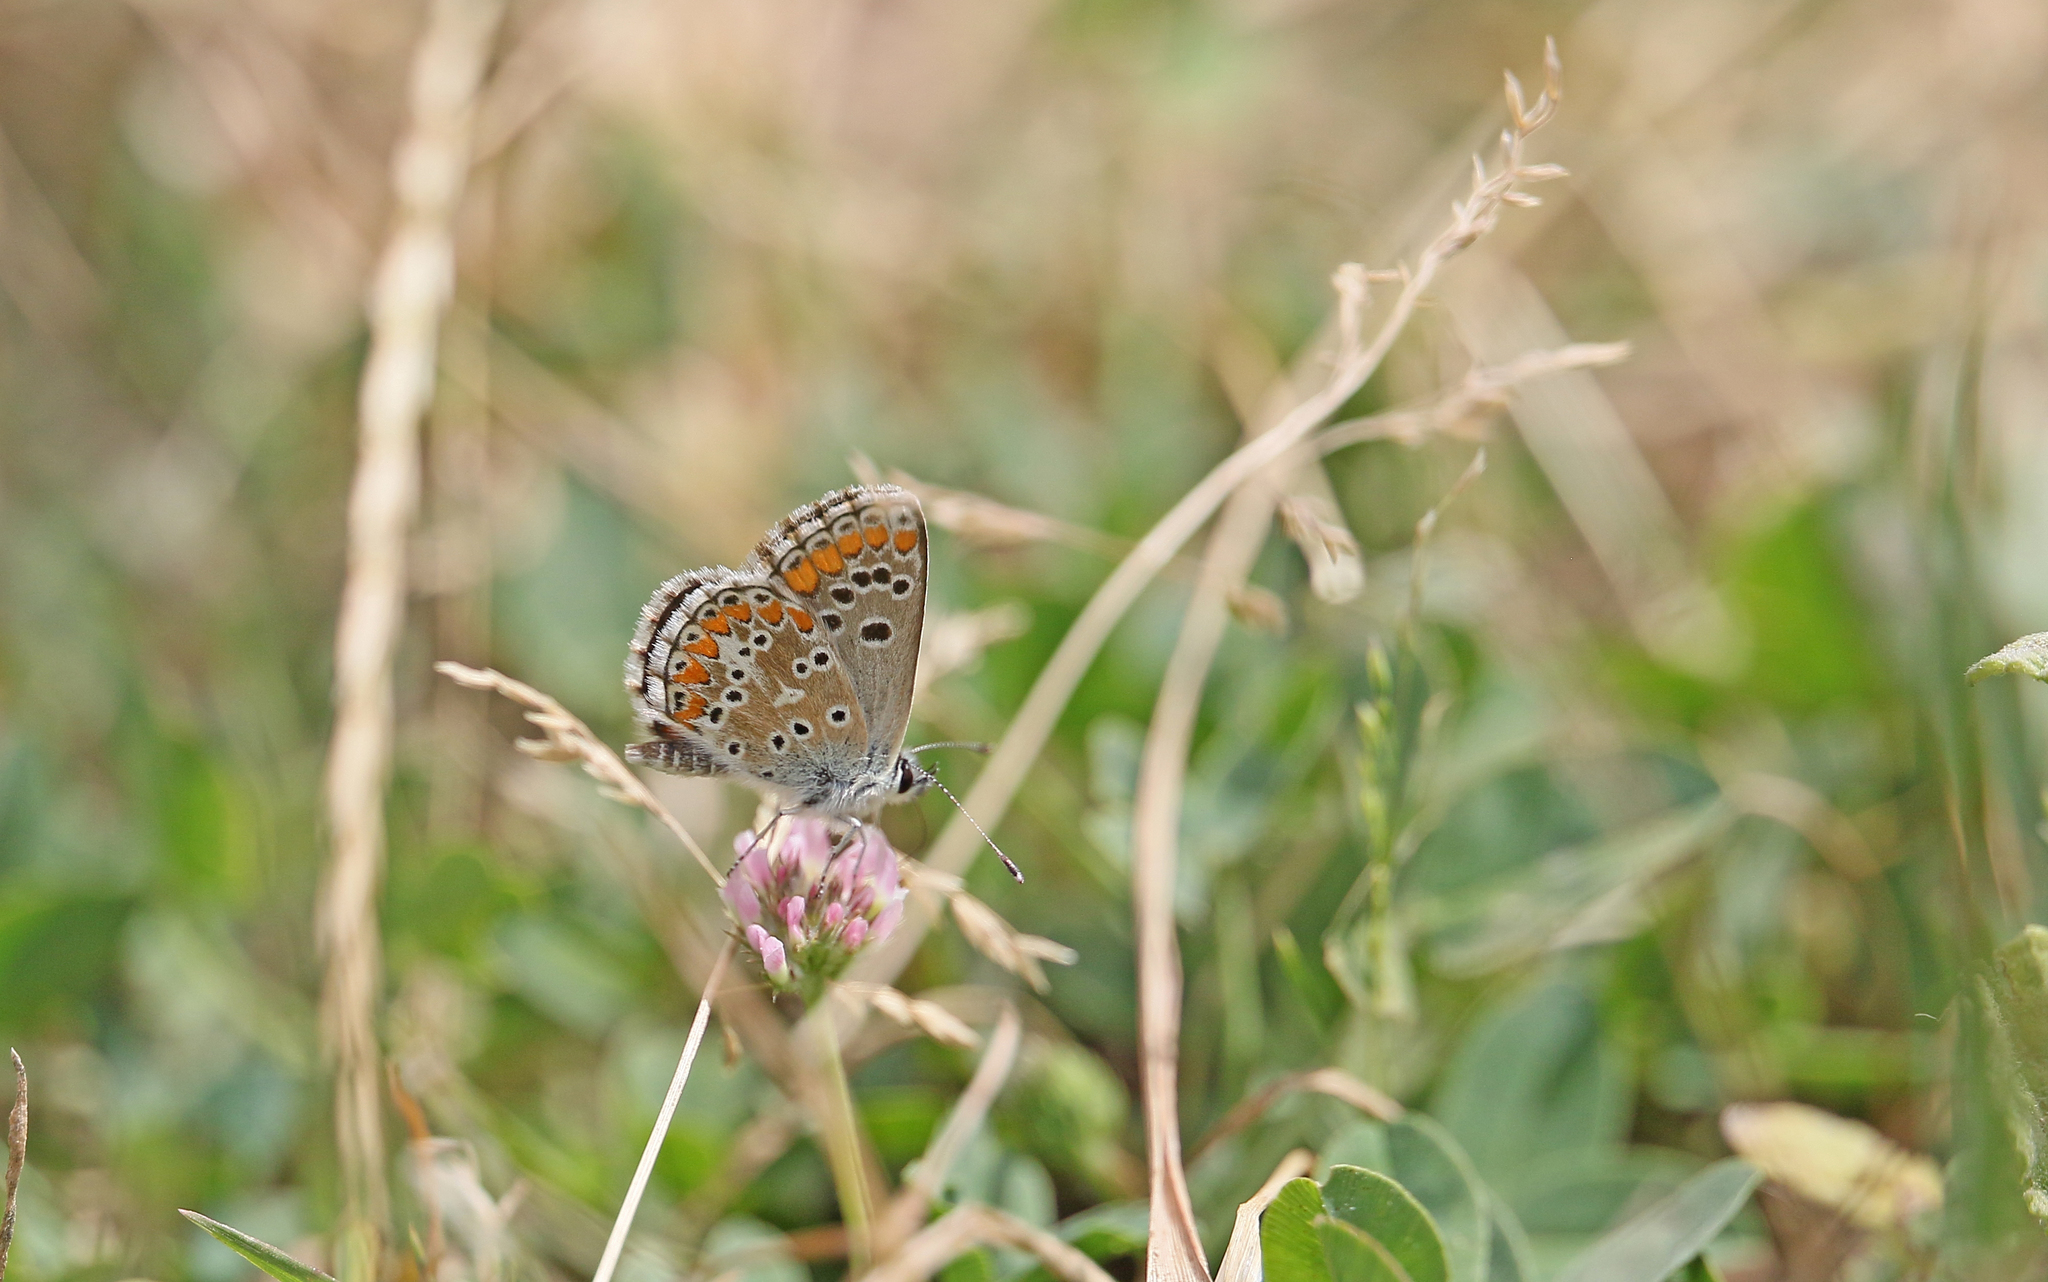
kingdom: Animalia
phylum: Arthropoda
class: Insecta
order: Lepidoptera
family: Lycaenidae
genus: Aricia
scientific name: Aricia cramera
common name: Eschscholtz´s brown  argus
